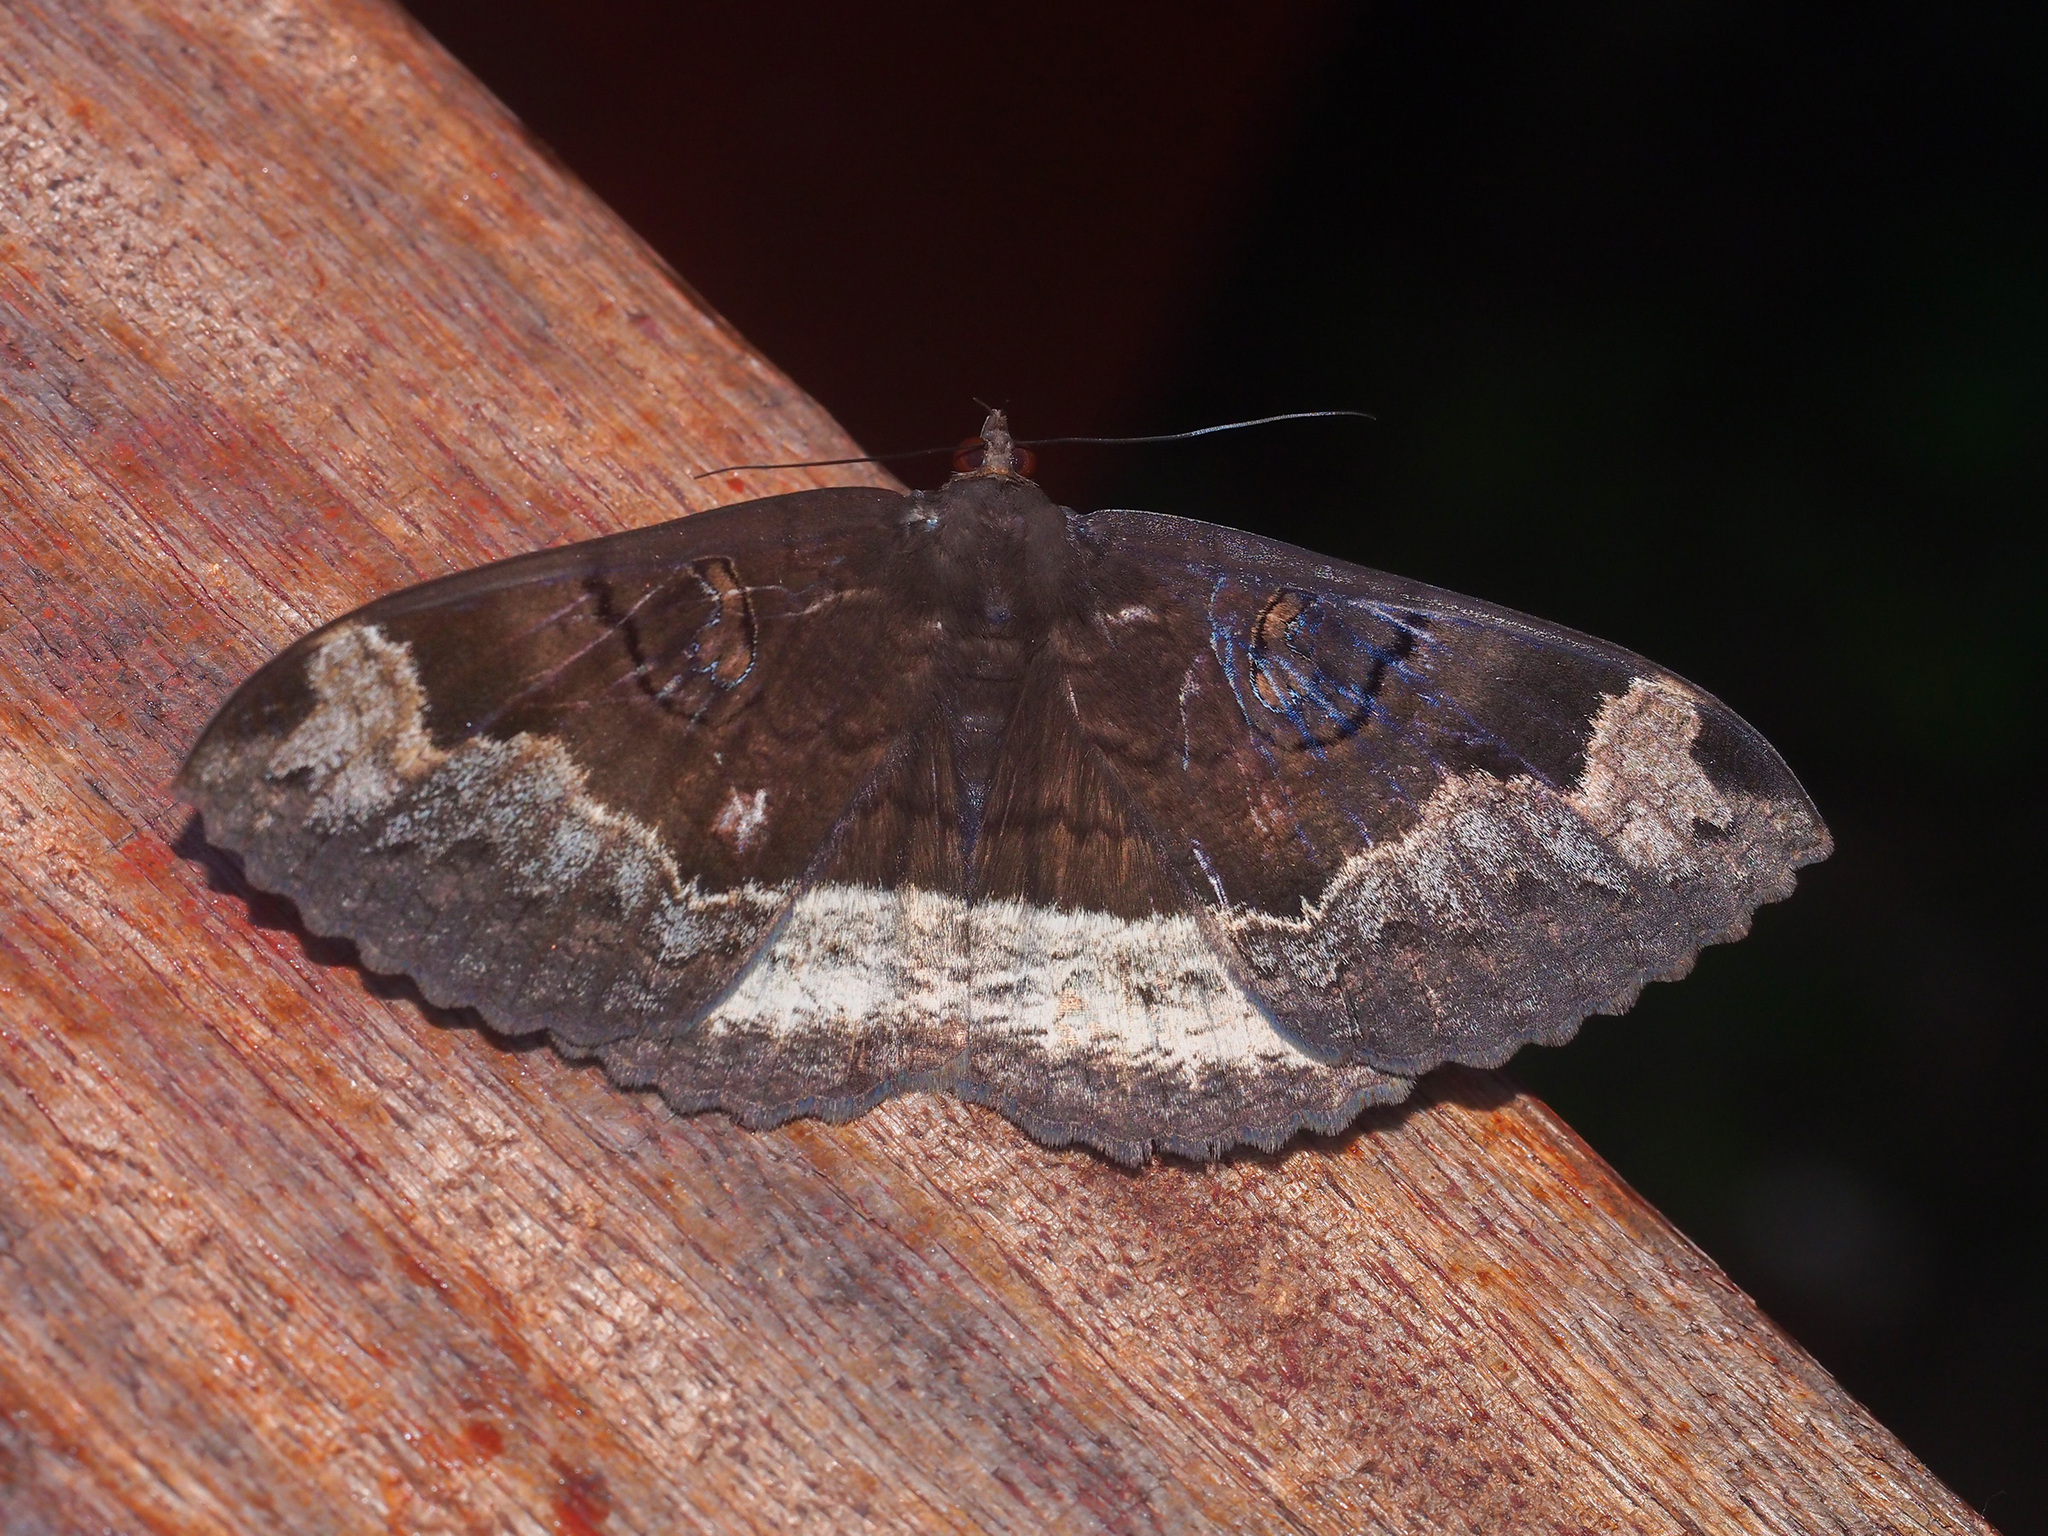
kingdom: Animalia
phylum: Arthropoda
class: Insecta
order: Lepidoptera
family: Erebidae
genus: Erebus
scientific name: Erebus caprimulgus
